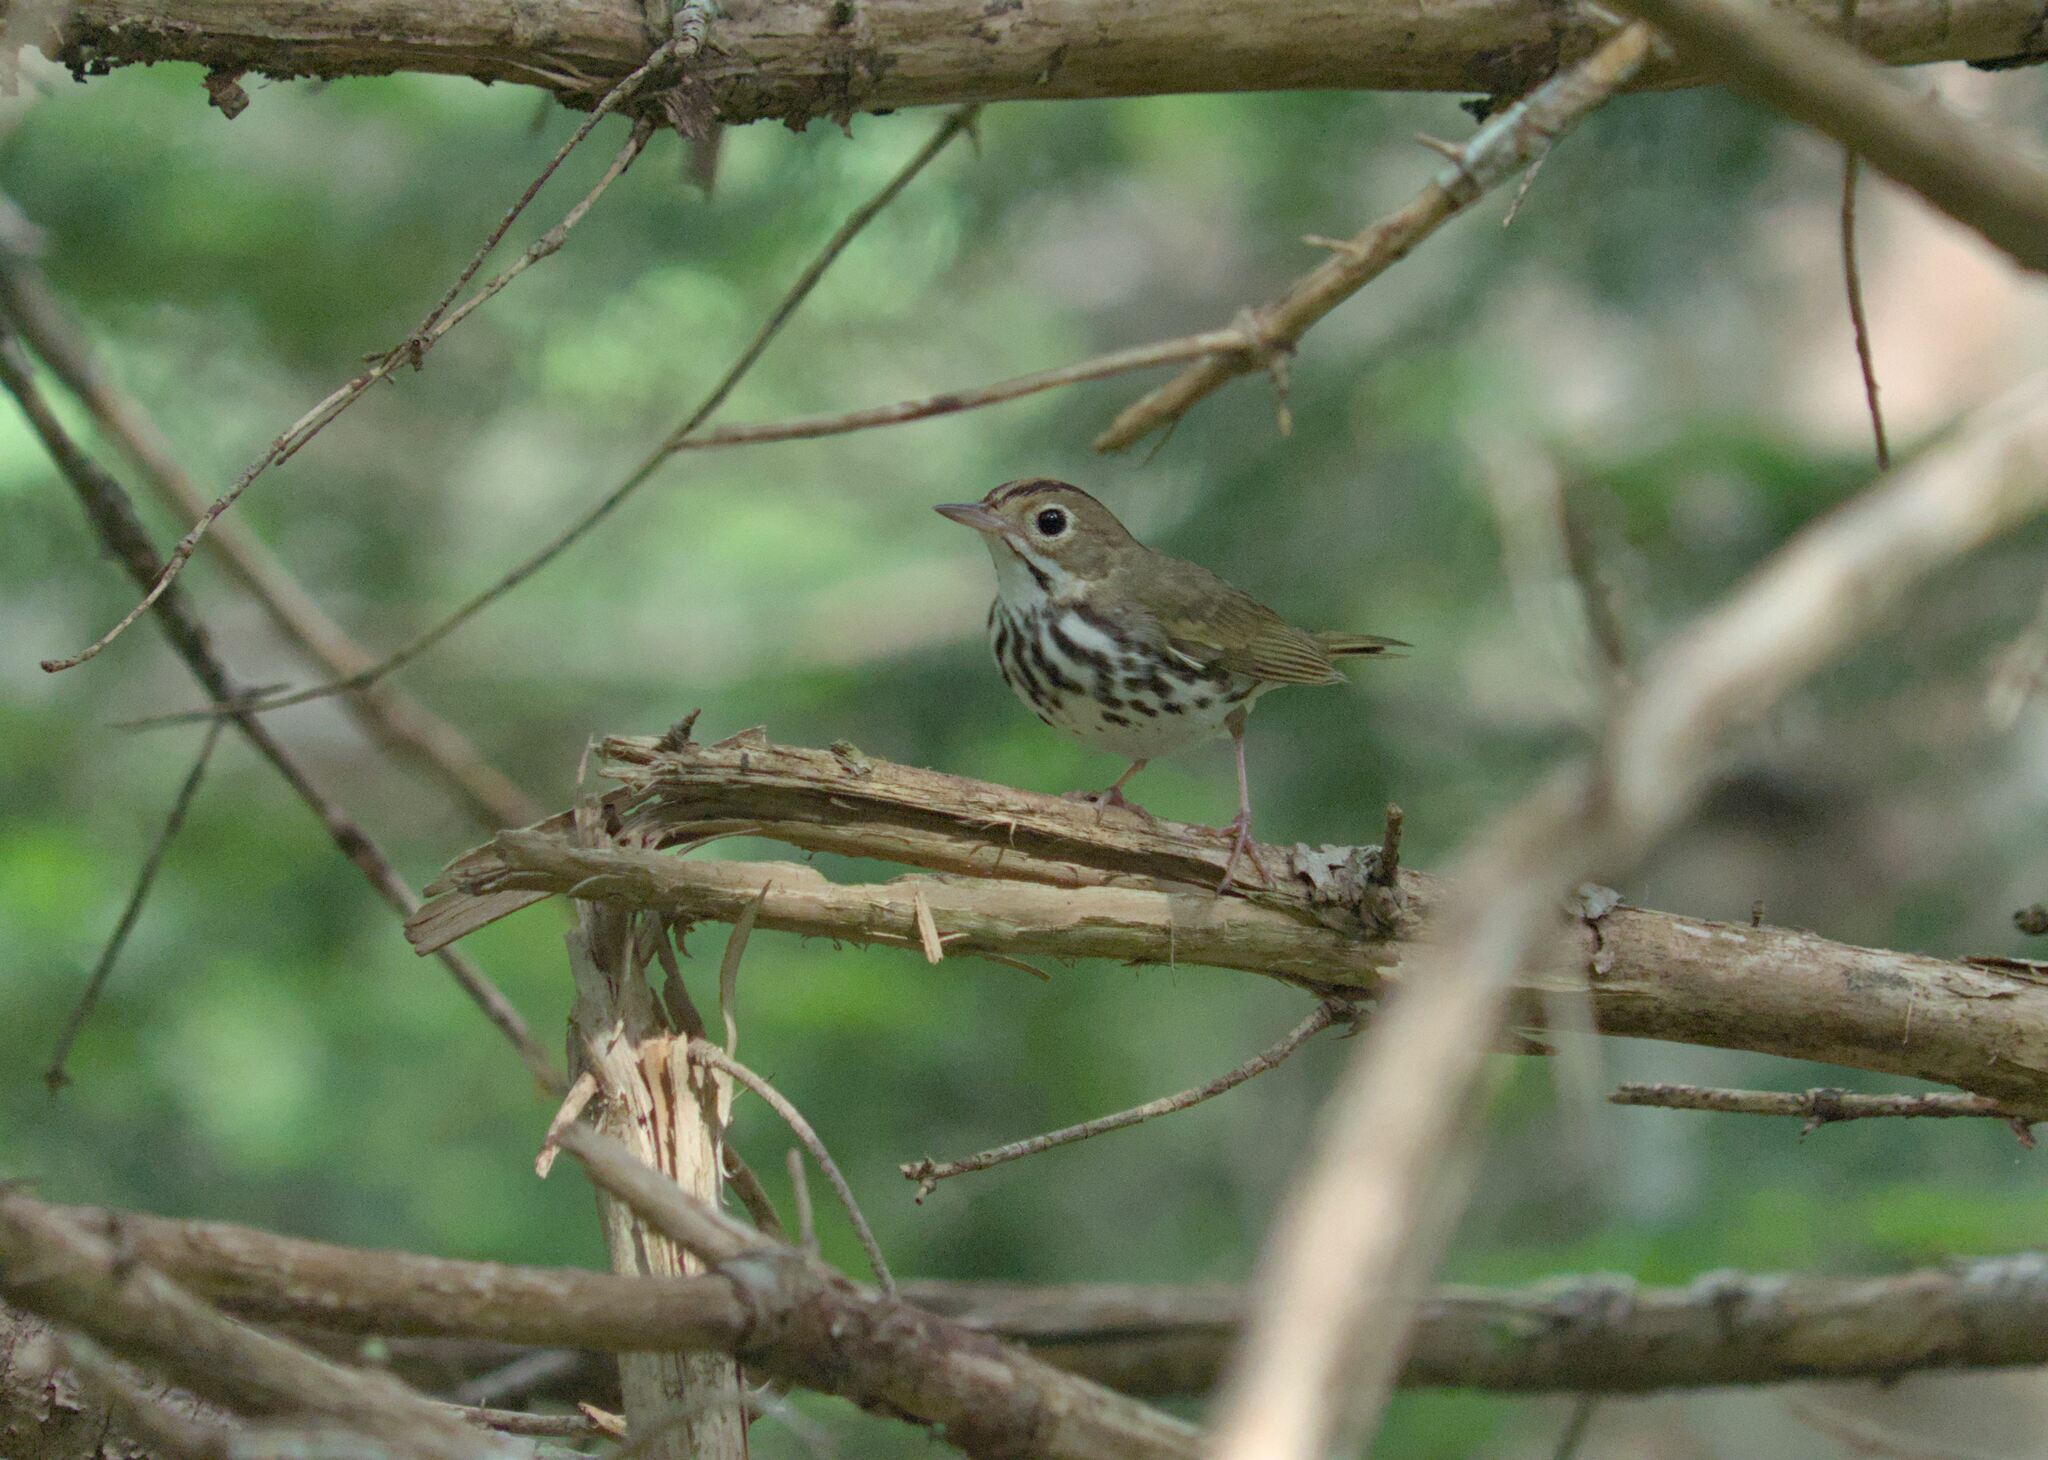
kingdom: Animalia
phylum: Chordata
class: Aves
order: Passeriformes
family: Parulidae
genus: Seiurus
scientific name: Seiurus aurocapilla
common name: Ovenbird
